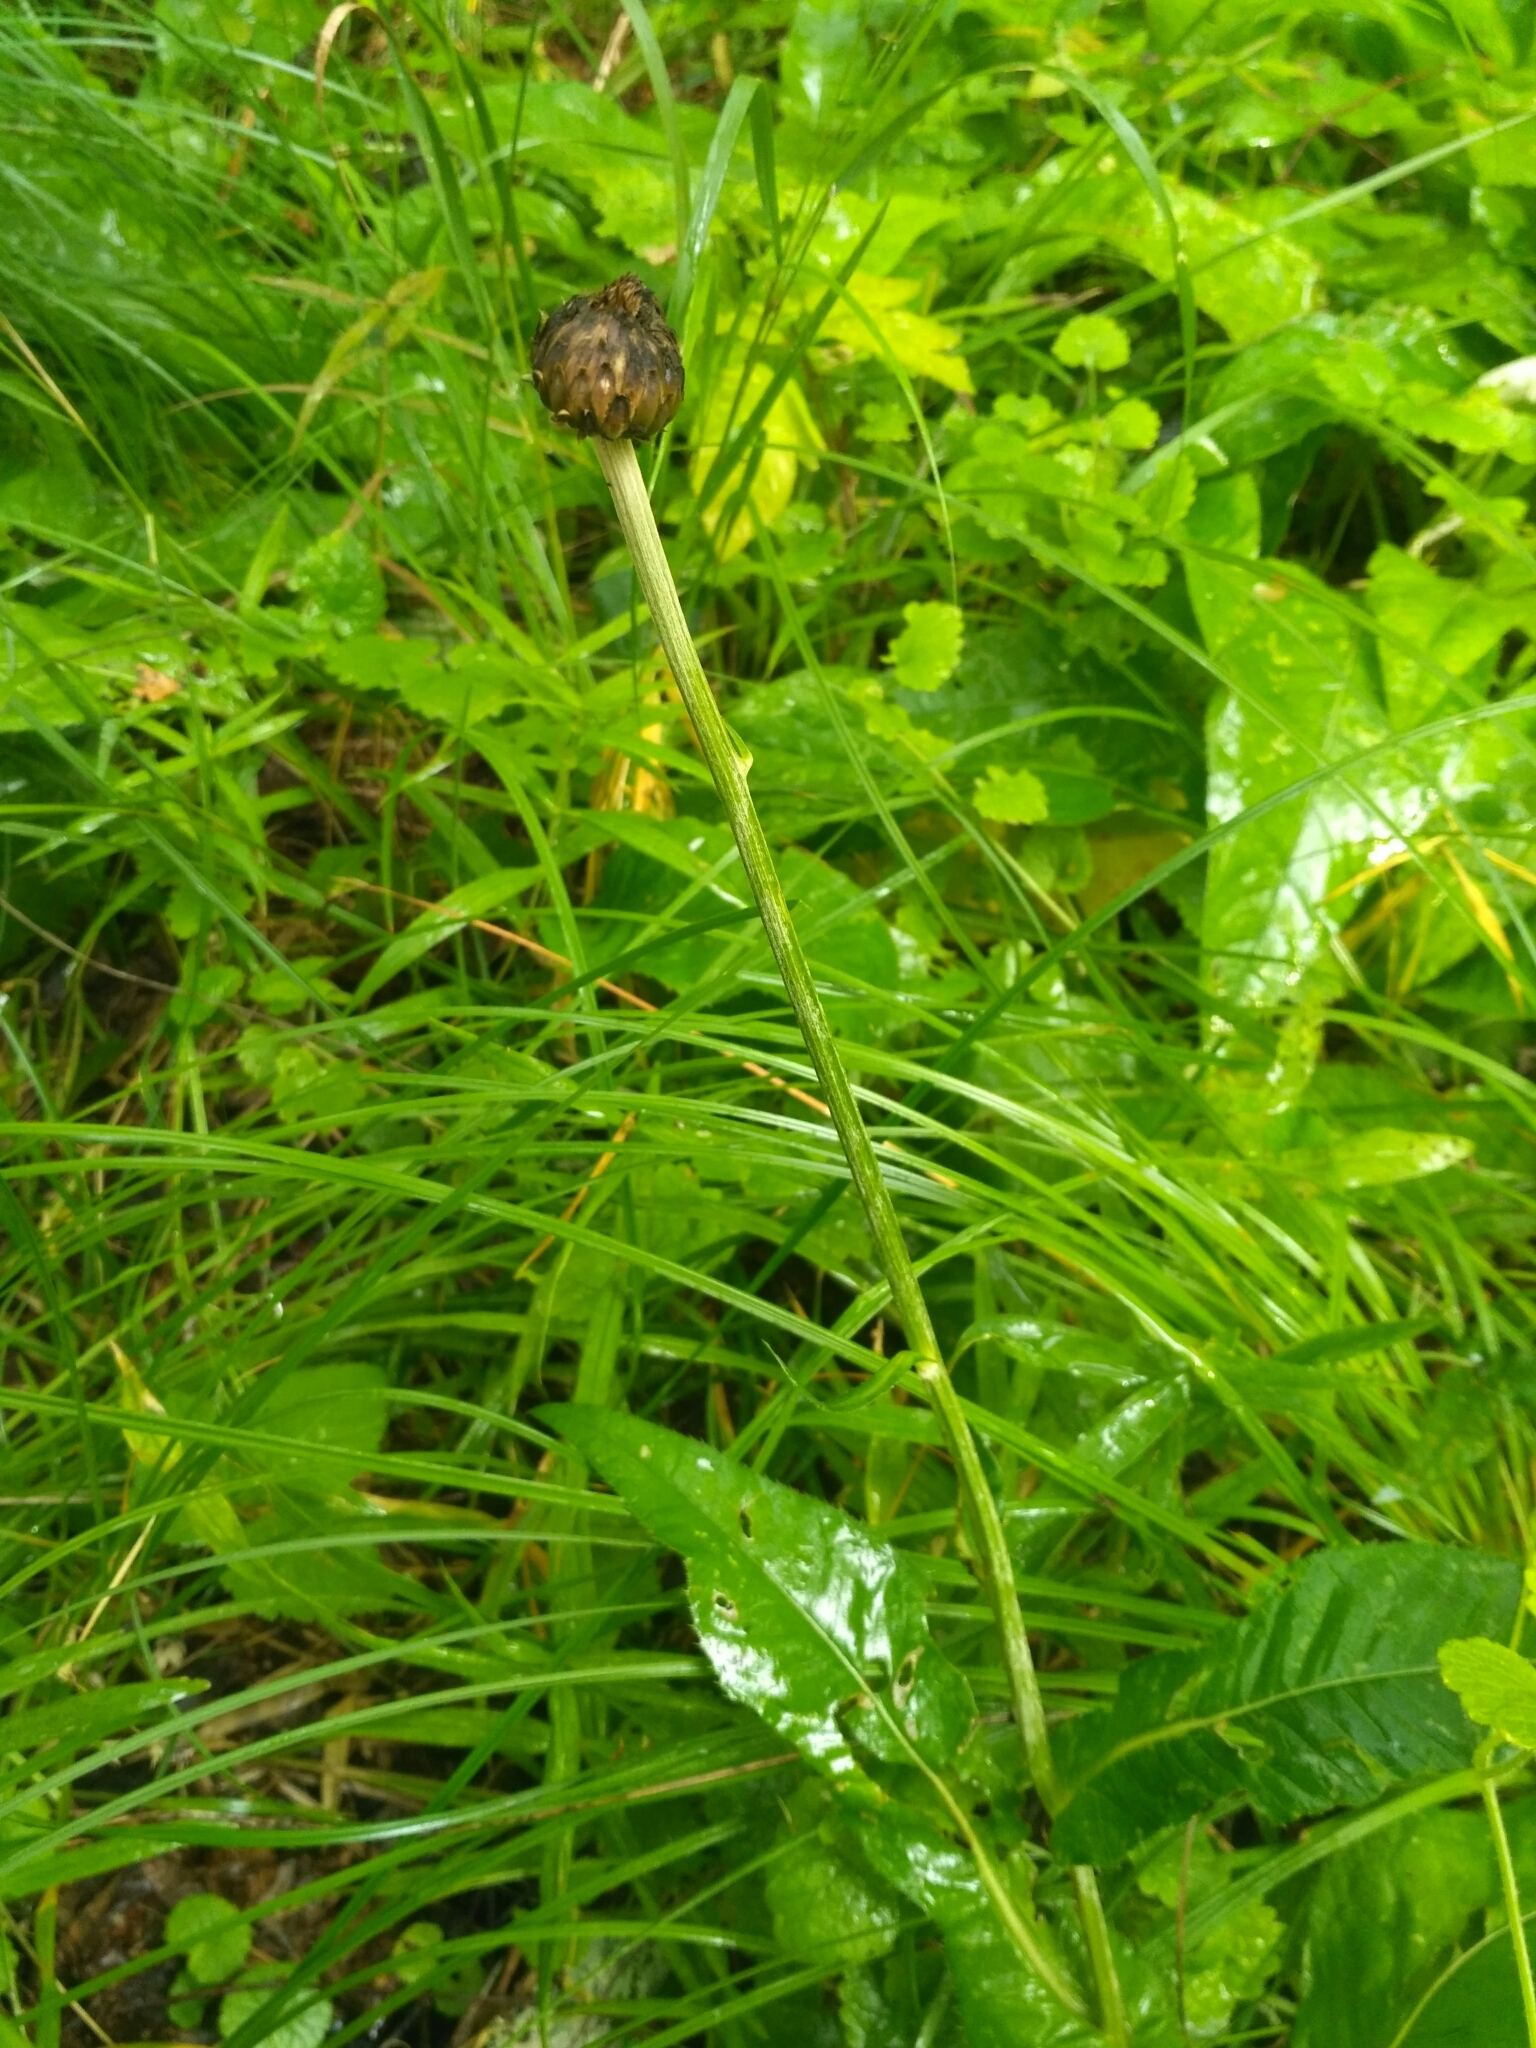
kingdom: Plantae
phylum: Tracheophyta
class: Magnoliopsida
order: Asterales
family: Asteraceae
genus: Cirsium
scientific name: Cirsium heterophyllum
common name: Melancholy thistle
